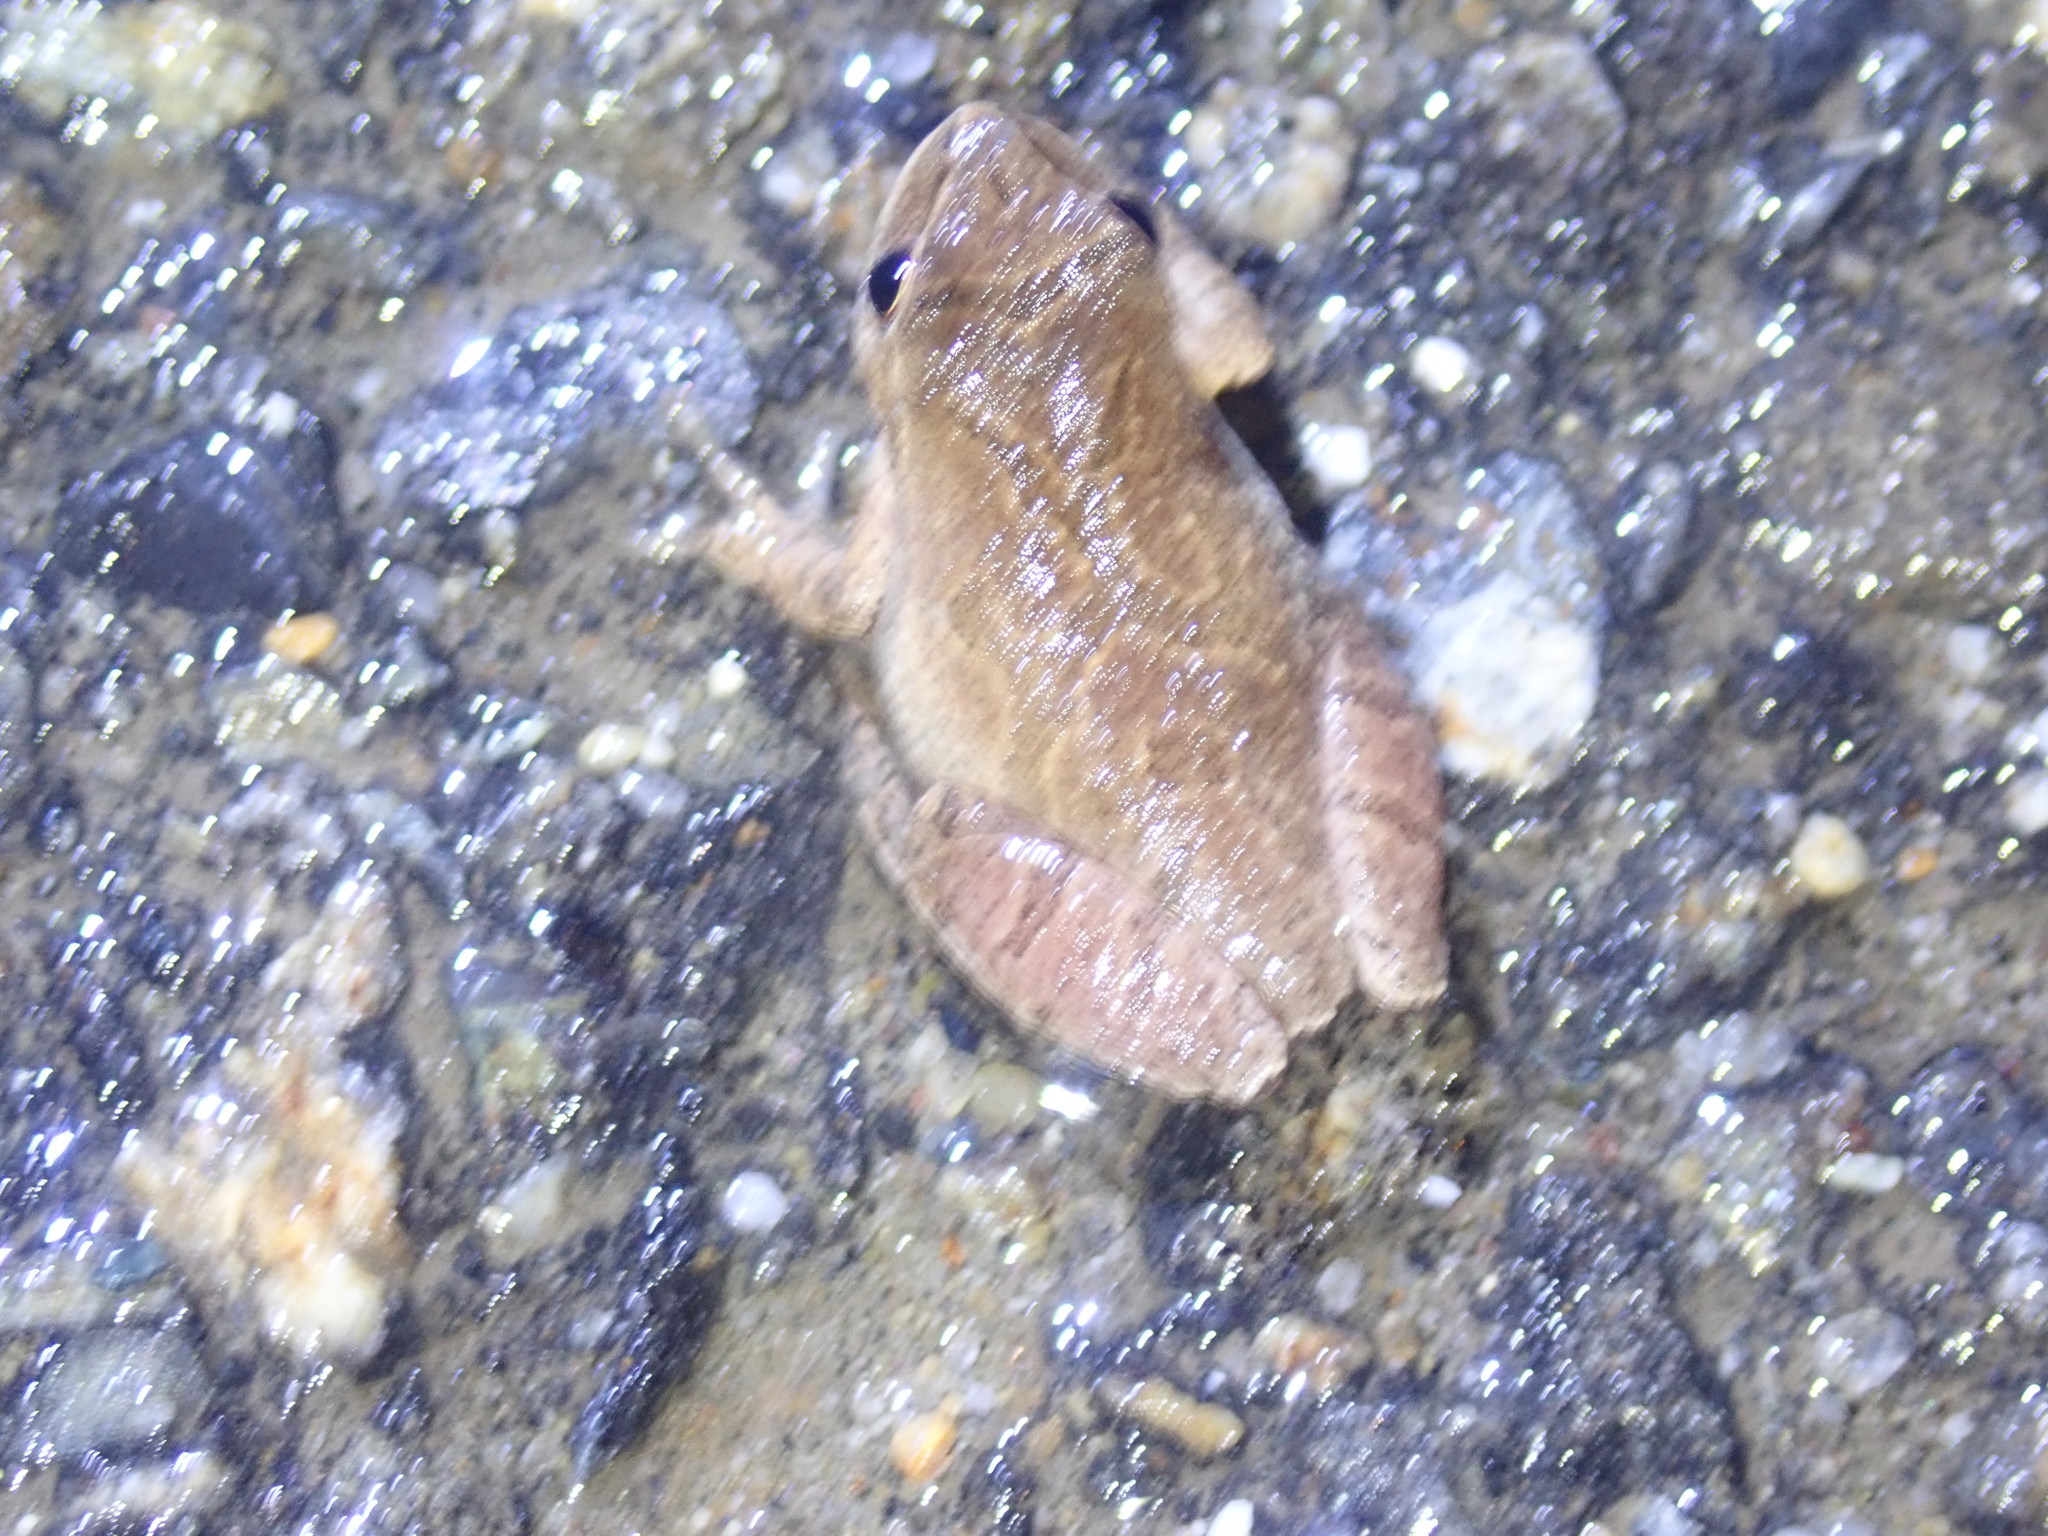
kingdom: Animalia
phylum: Chordata
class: Amphibia
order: Anura
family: Hylidae
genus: Pseudacris
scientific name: Pseudacris crucifer
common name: Spring peeper
